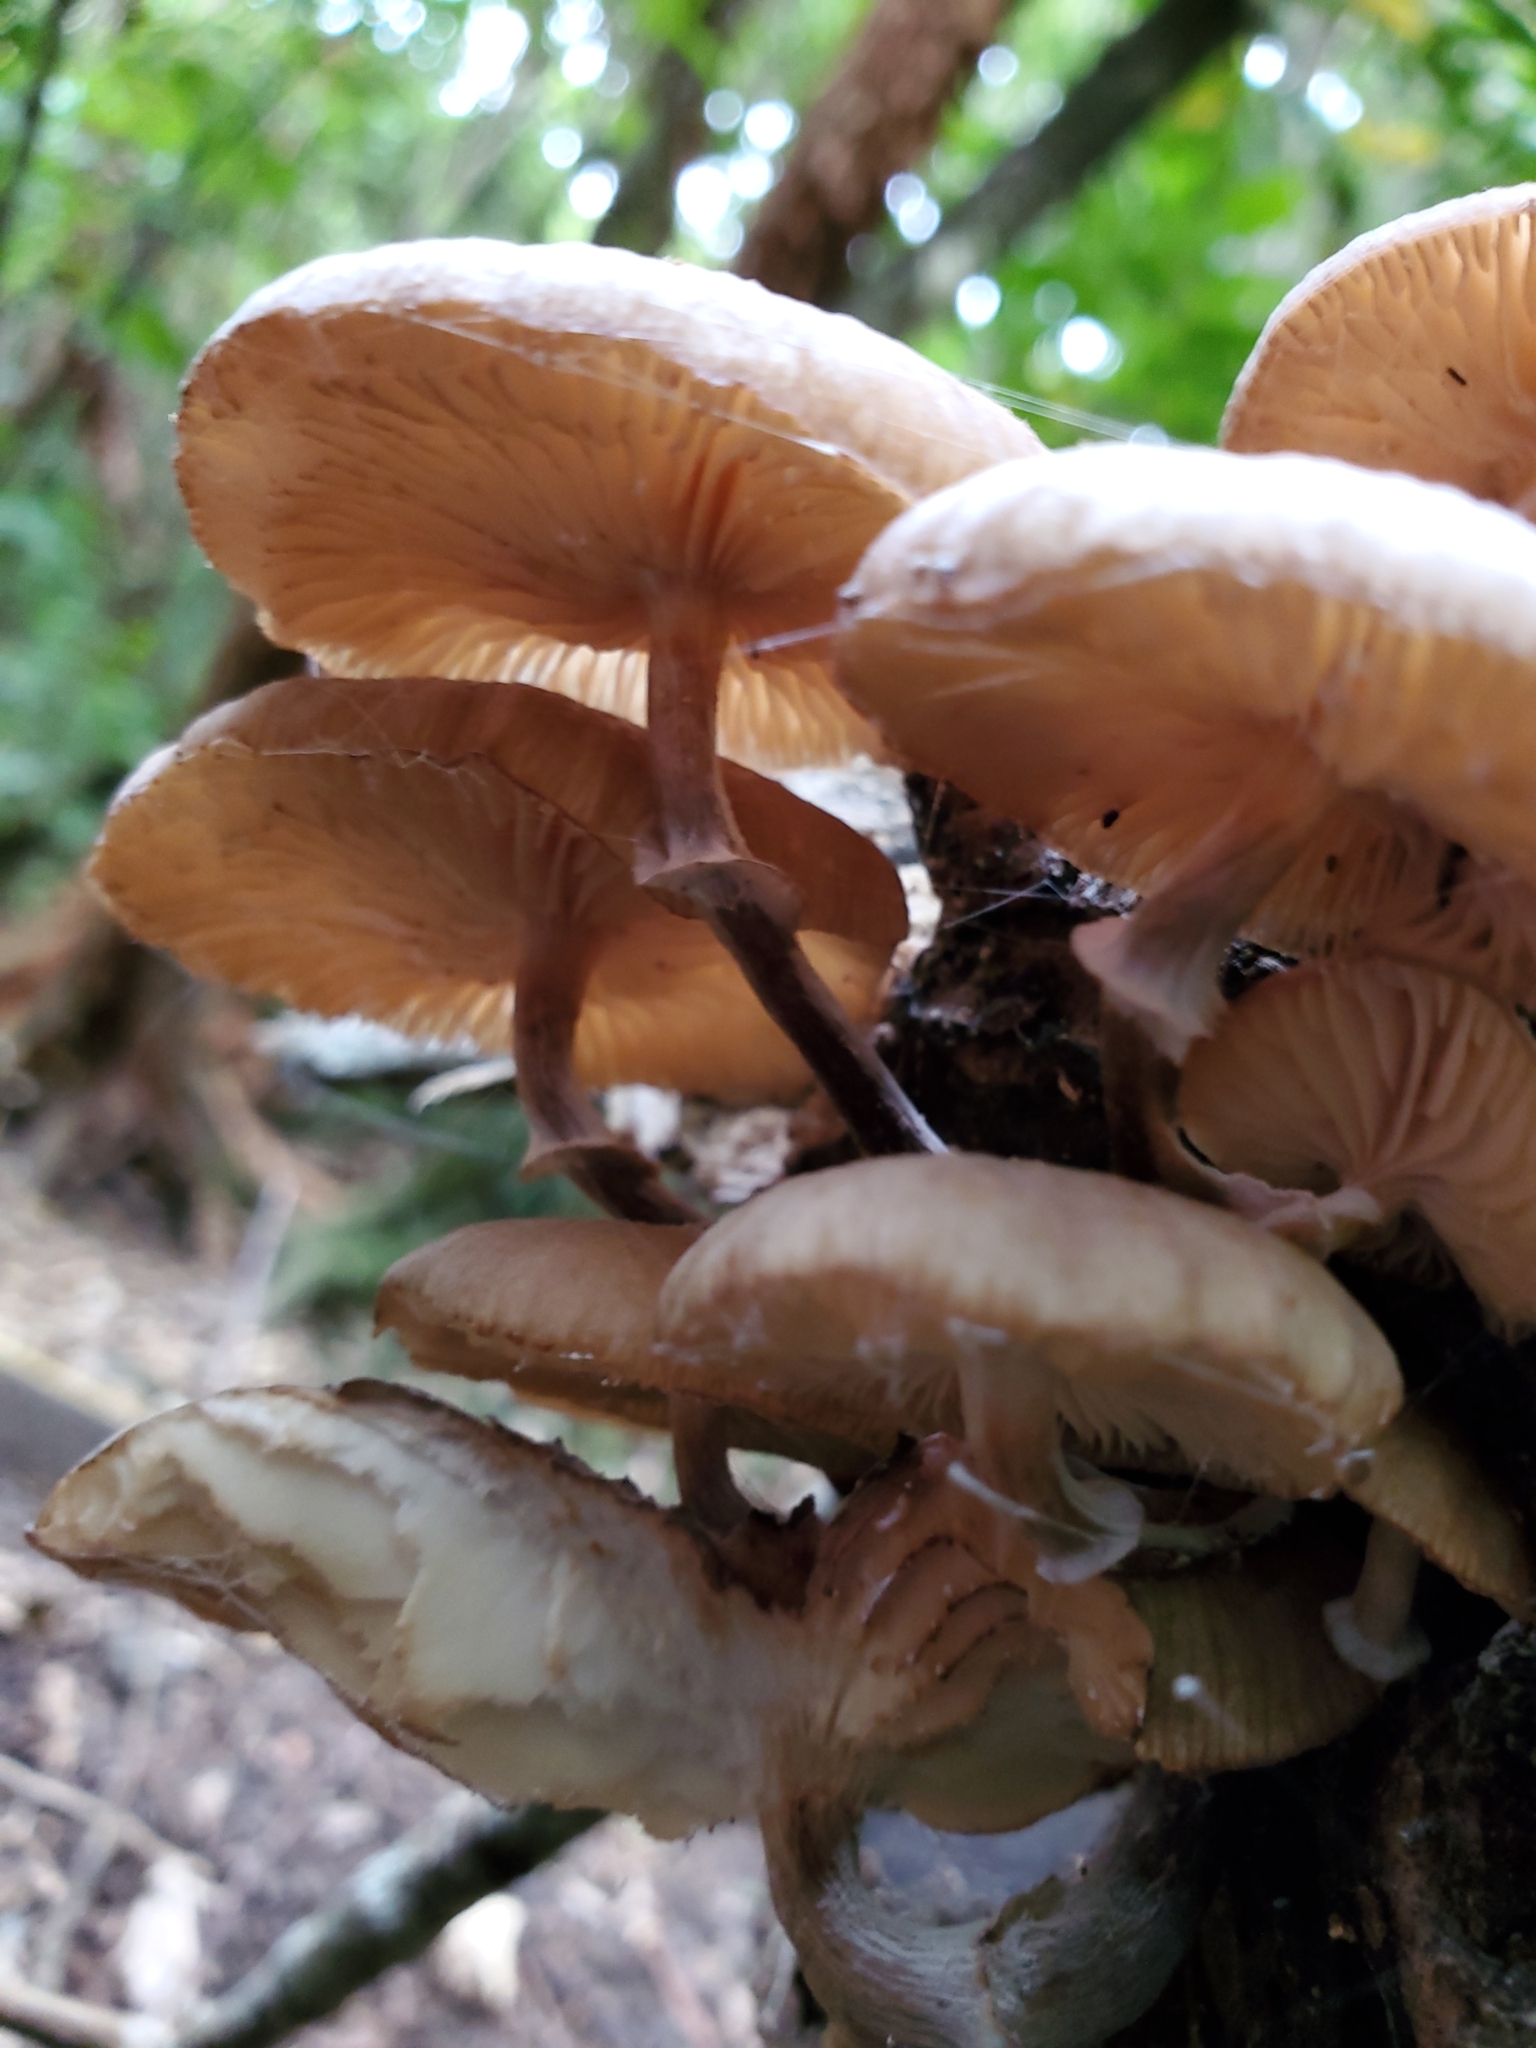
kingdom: Fungi
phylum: Basidiomycota
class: Agaricomycetes
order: Agaricales
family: Physalacriaceae
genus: Armillaria
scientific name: Armillaria novae-zelandiae
